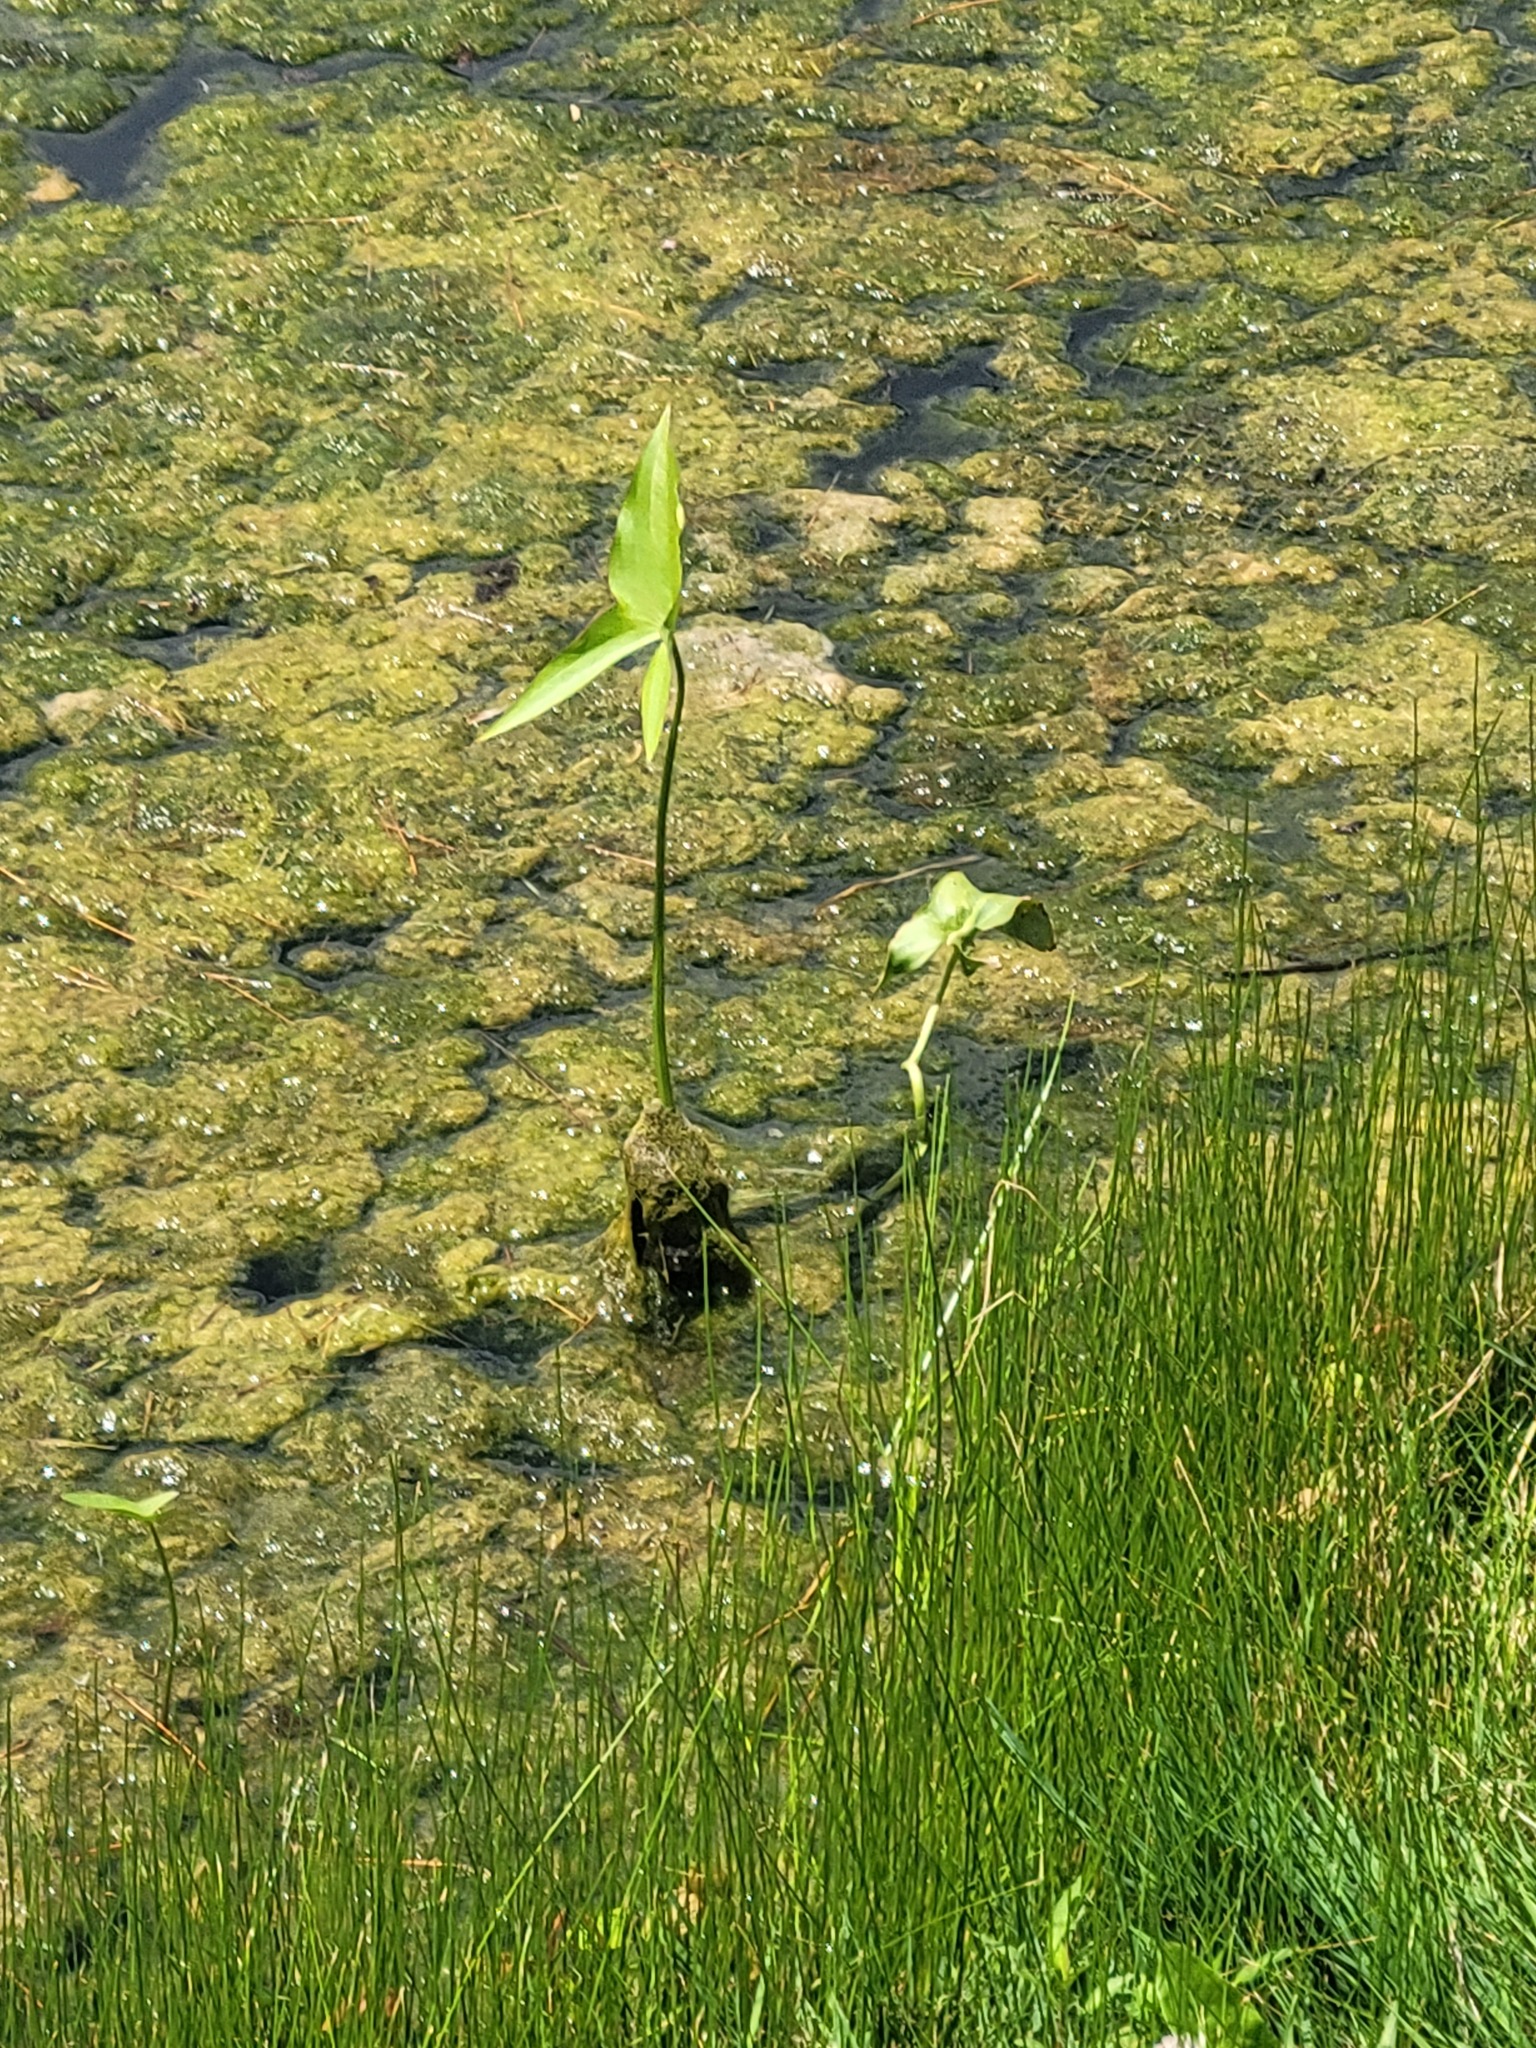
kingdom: Plantae
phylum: Tracheophyta
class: Liliopsida
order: Alismatales
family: Alismataceae
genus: Sagittaria
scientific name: Sagittaria
